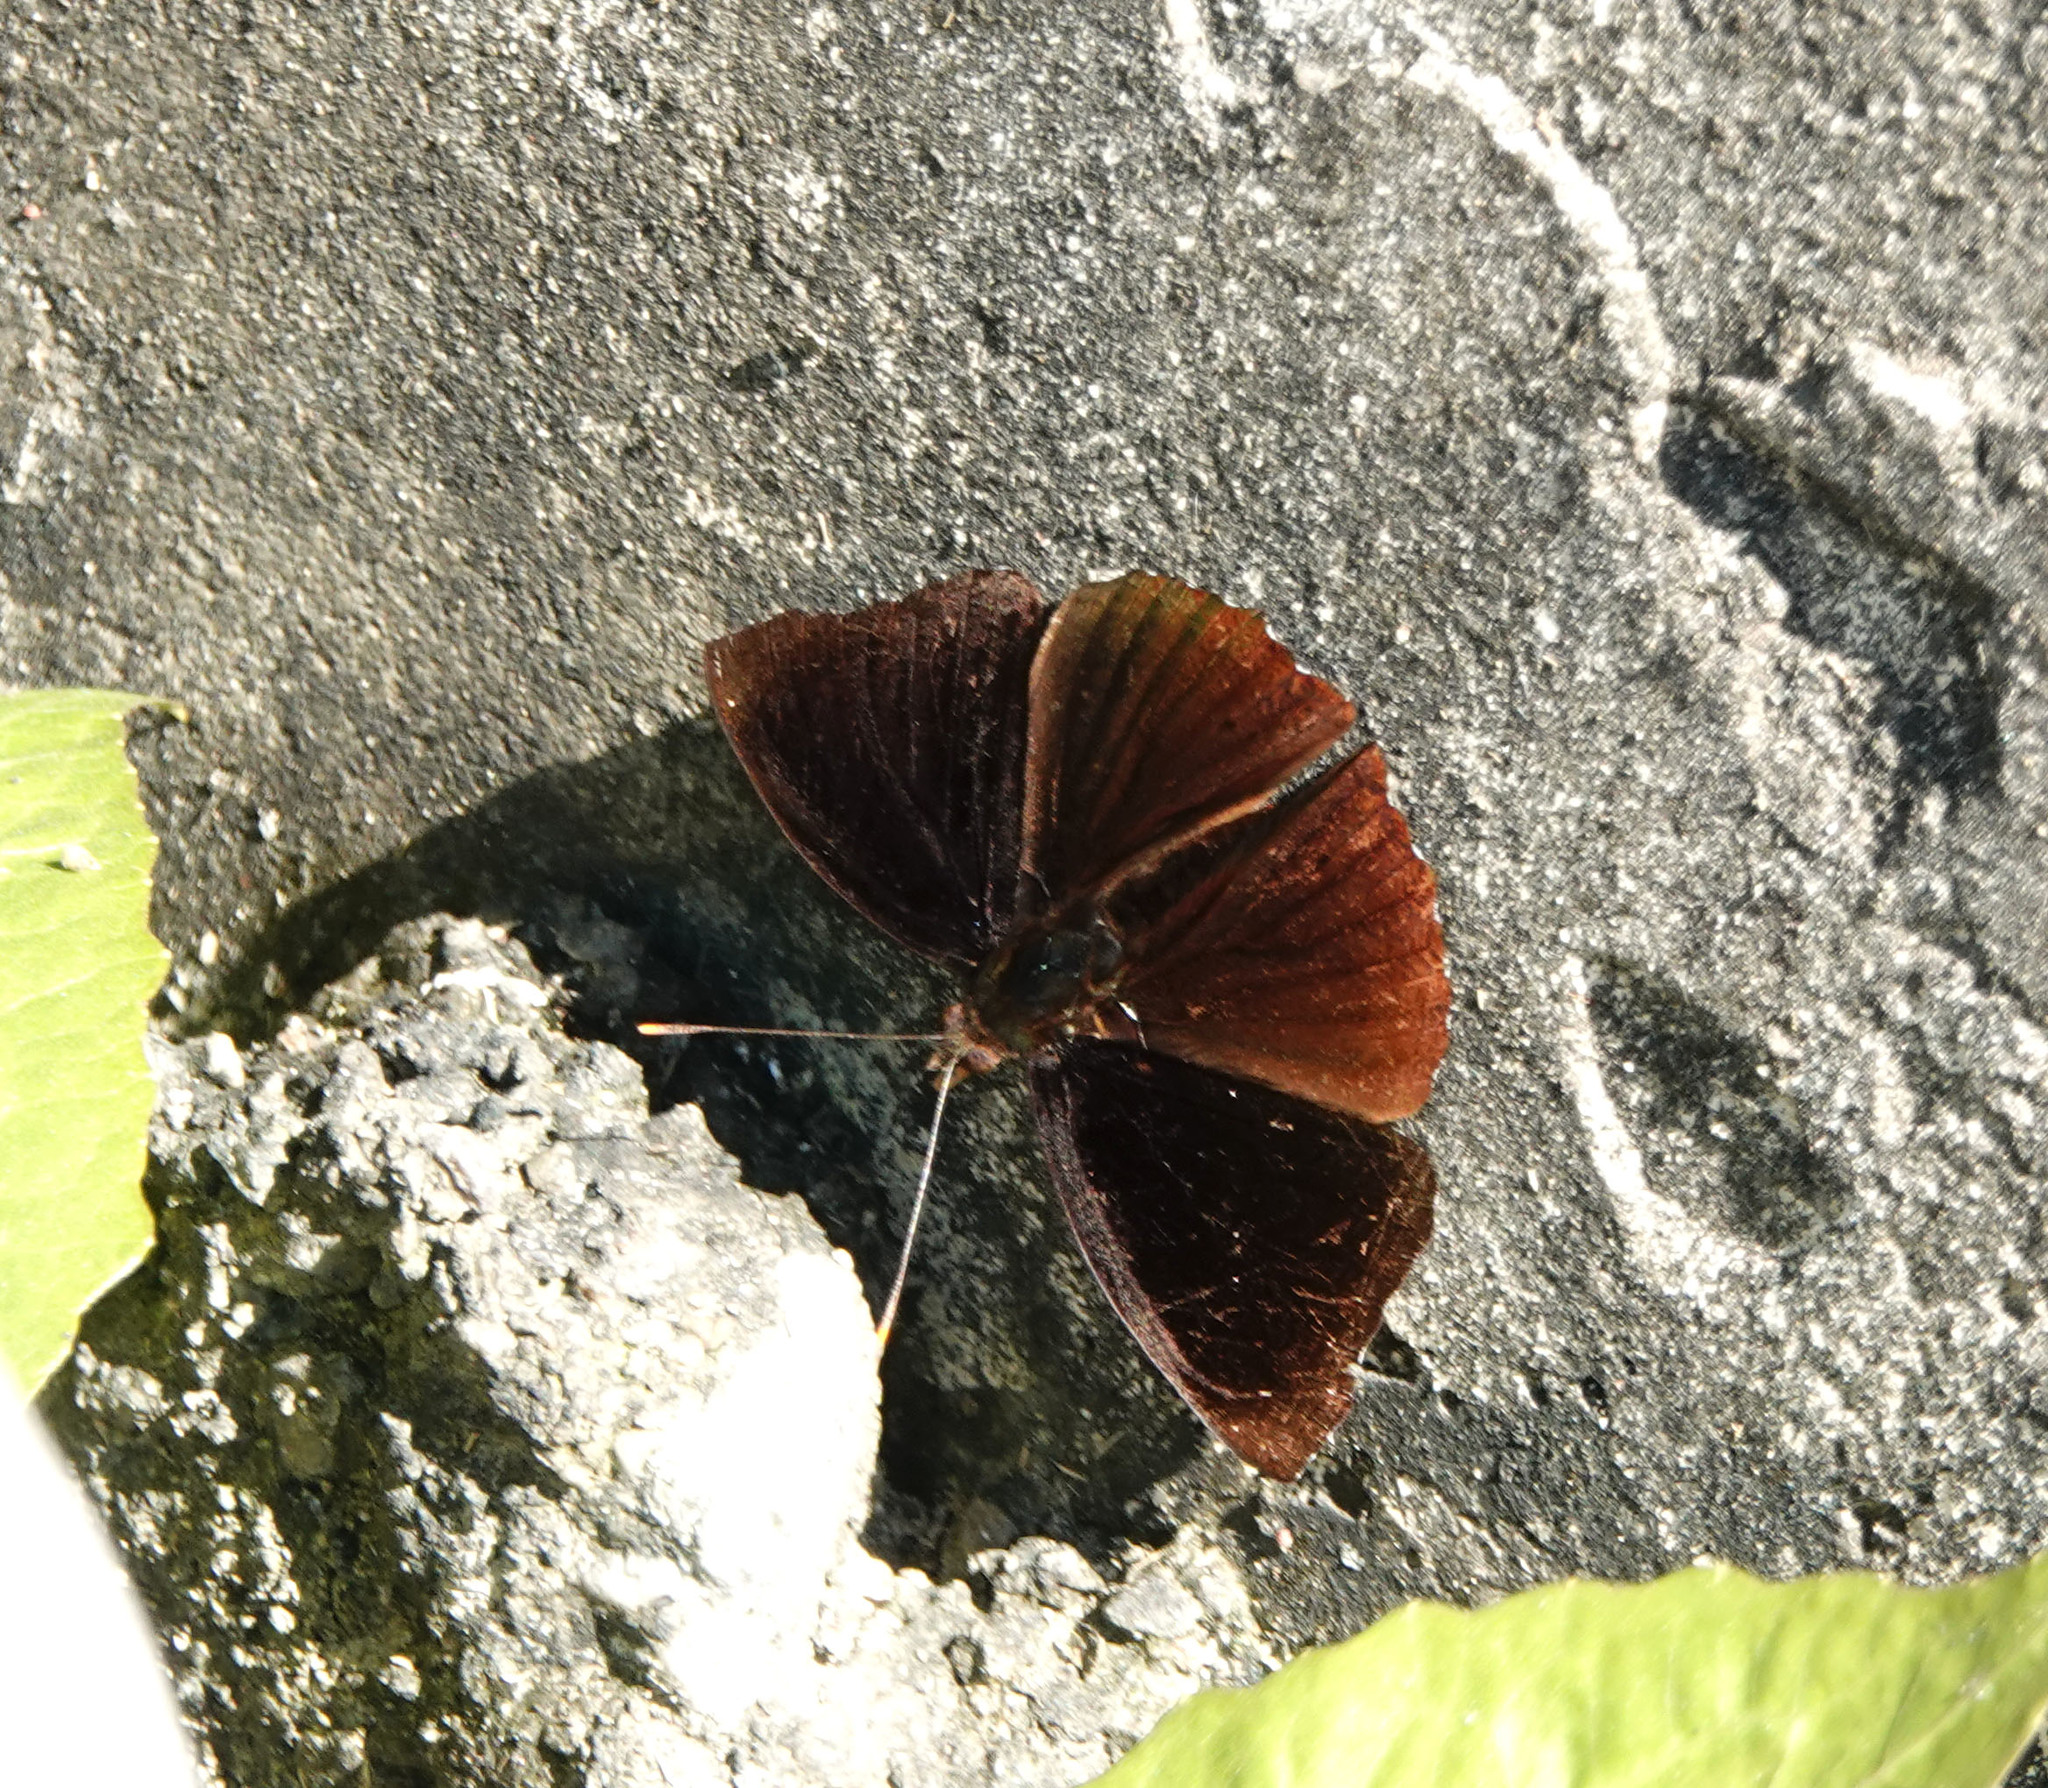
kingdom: Animalia
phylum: Arthropoda
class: Insecta
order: Lepidoptera
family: Nymphalidae
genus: Apatura
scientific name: Apatura Rohana spec
